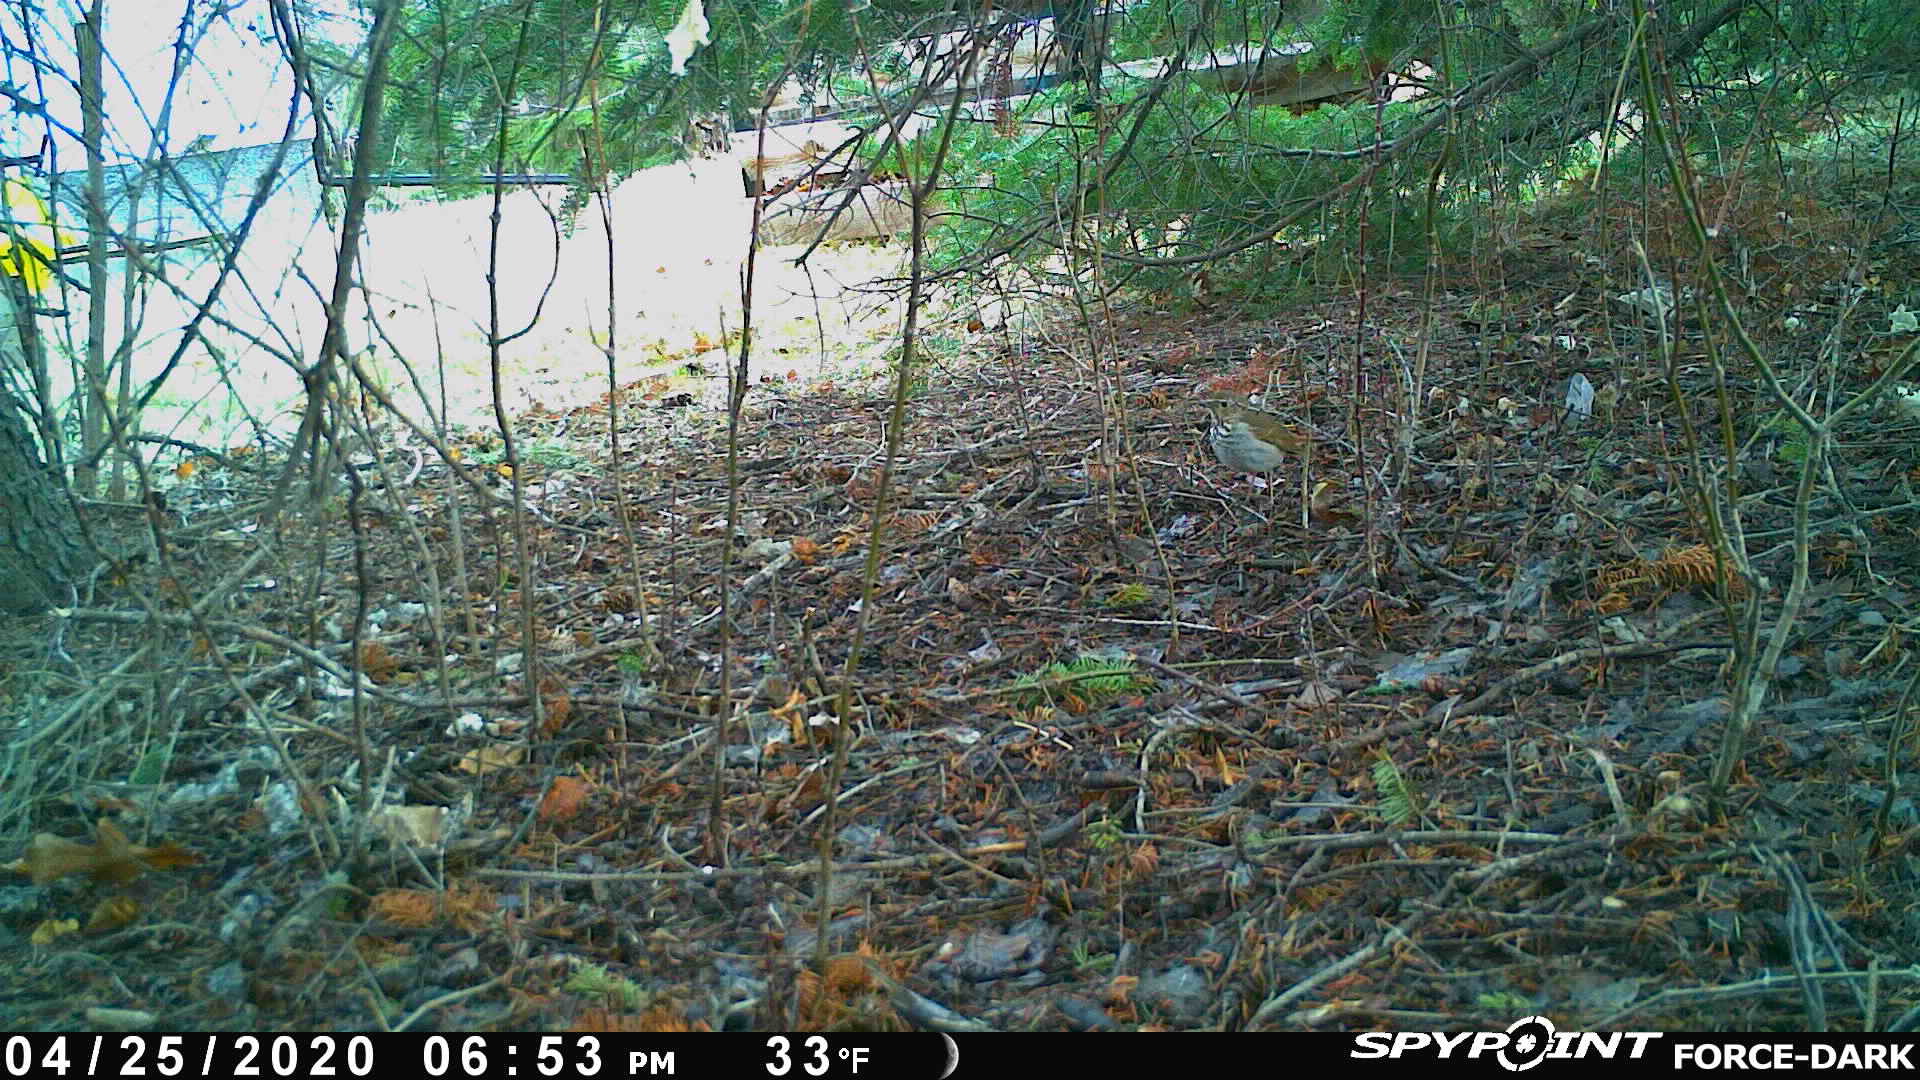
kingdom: Animalia
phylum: Chordata
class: Aves
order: Passeriformes
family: Turdidae
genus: Catharus
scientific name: Catharus guttatus
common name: Hermit thrush
